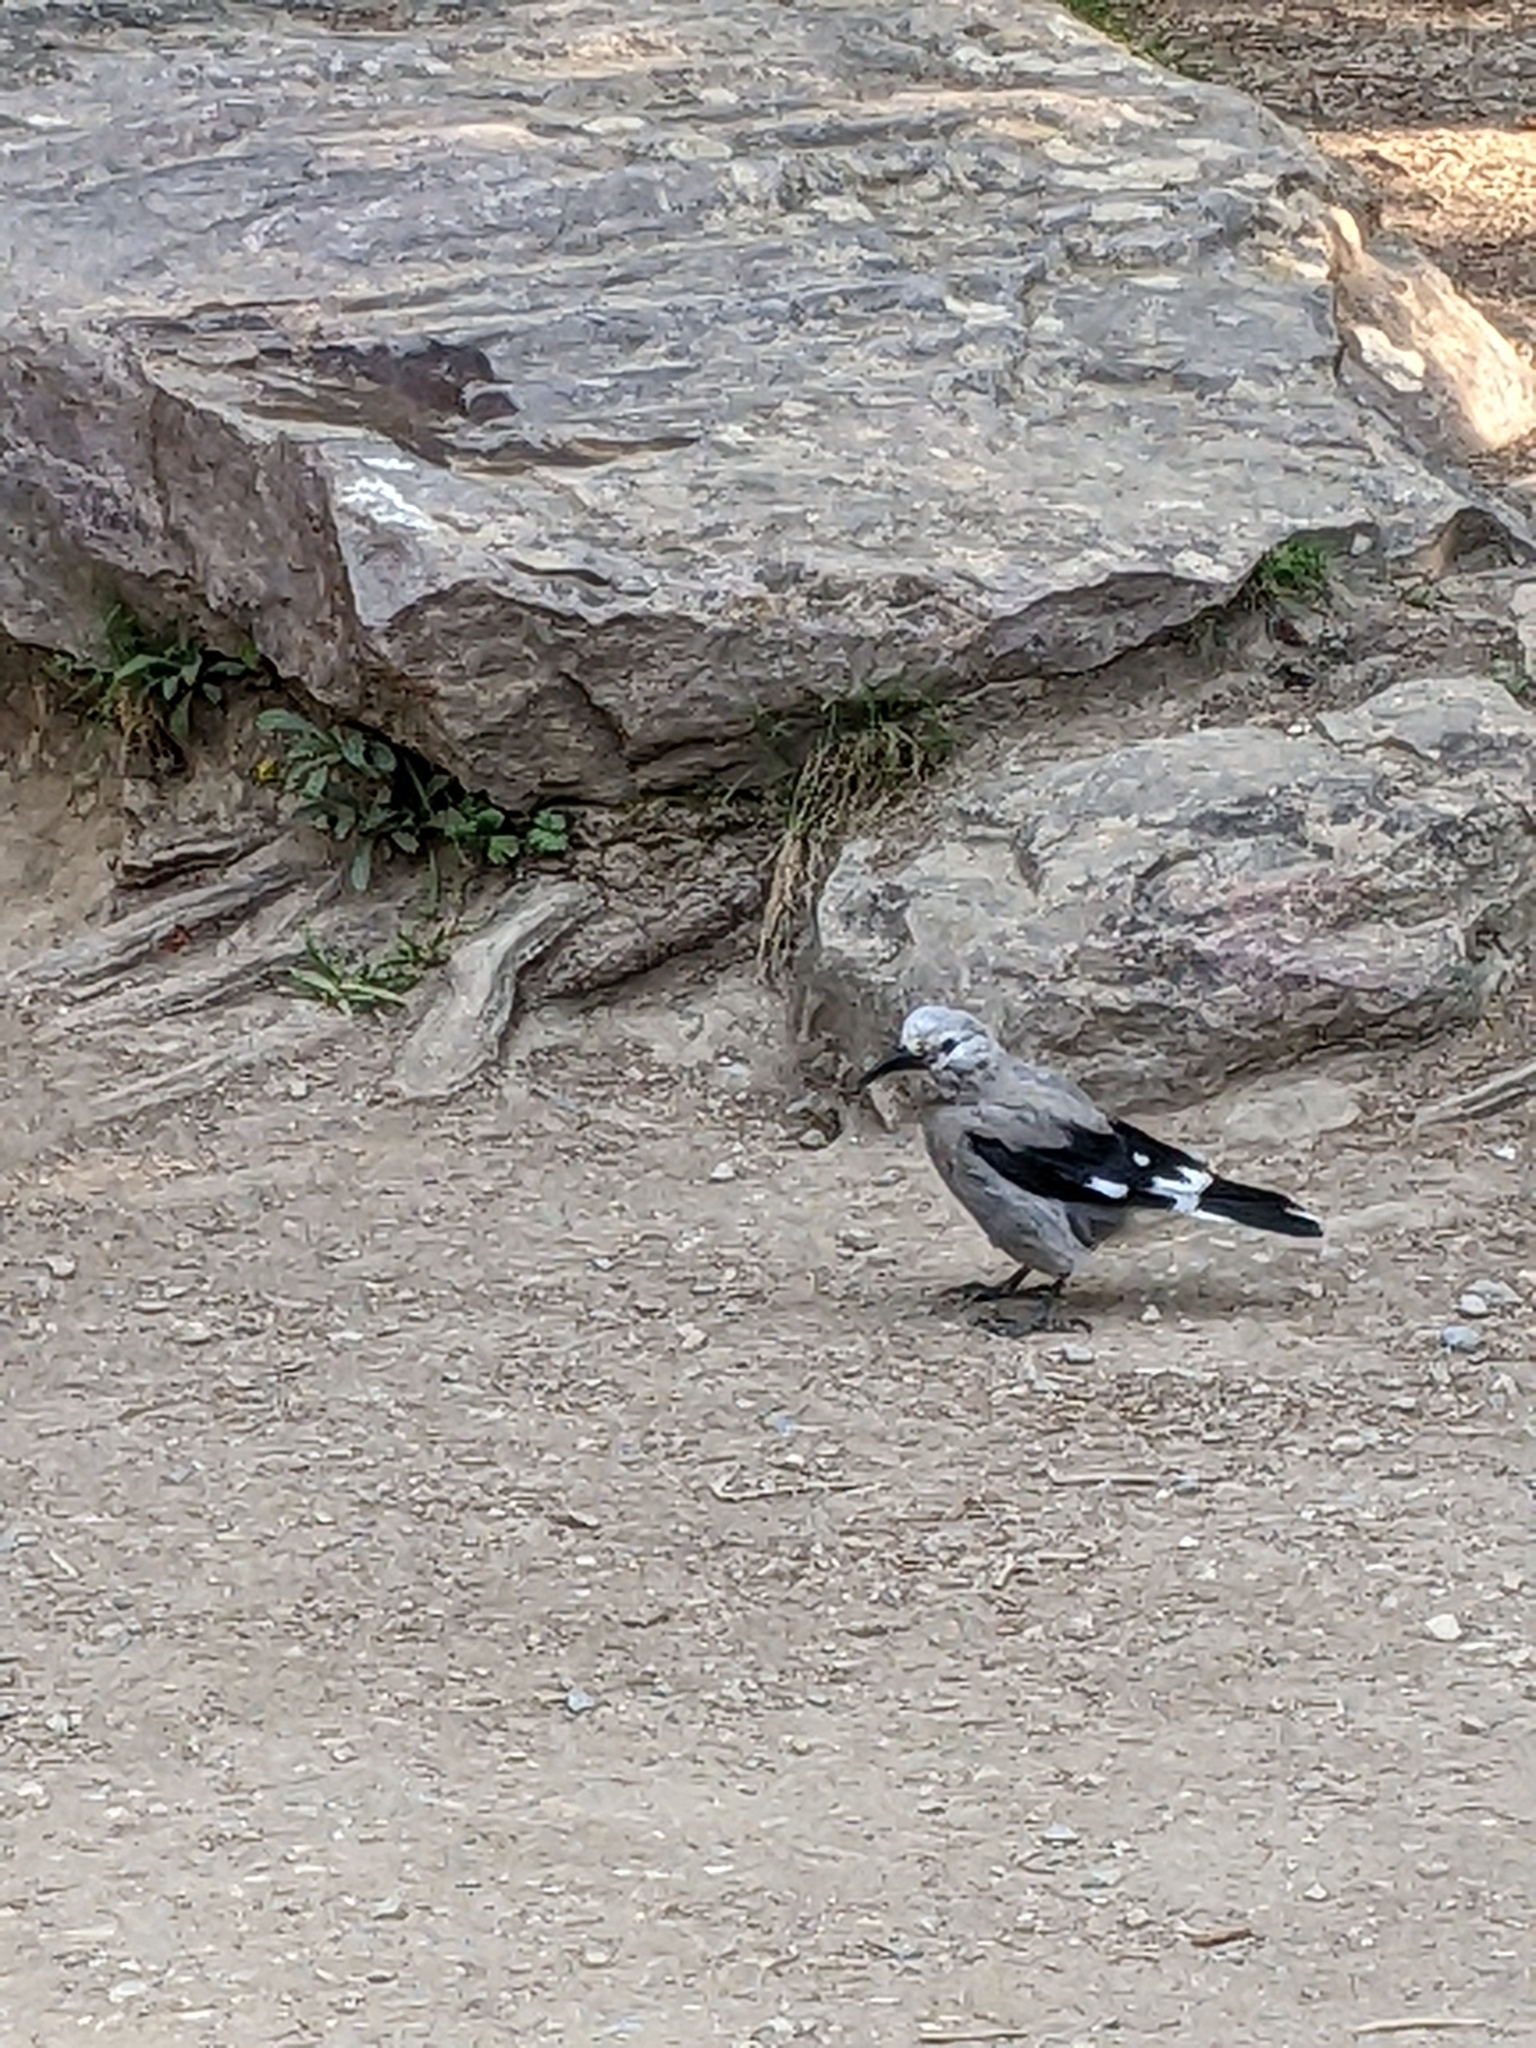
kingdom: Animalia
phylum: Chordata
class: Aves
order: Passeriformes
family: Corvidae
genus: Nucifraga
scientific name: Nucifraga columbiana
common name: Clark's nutcracker
